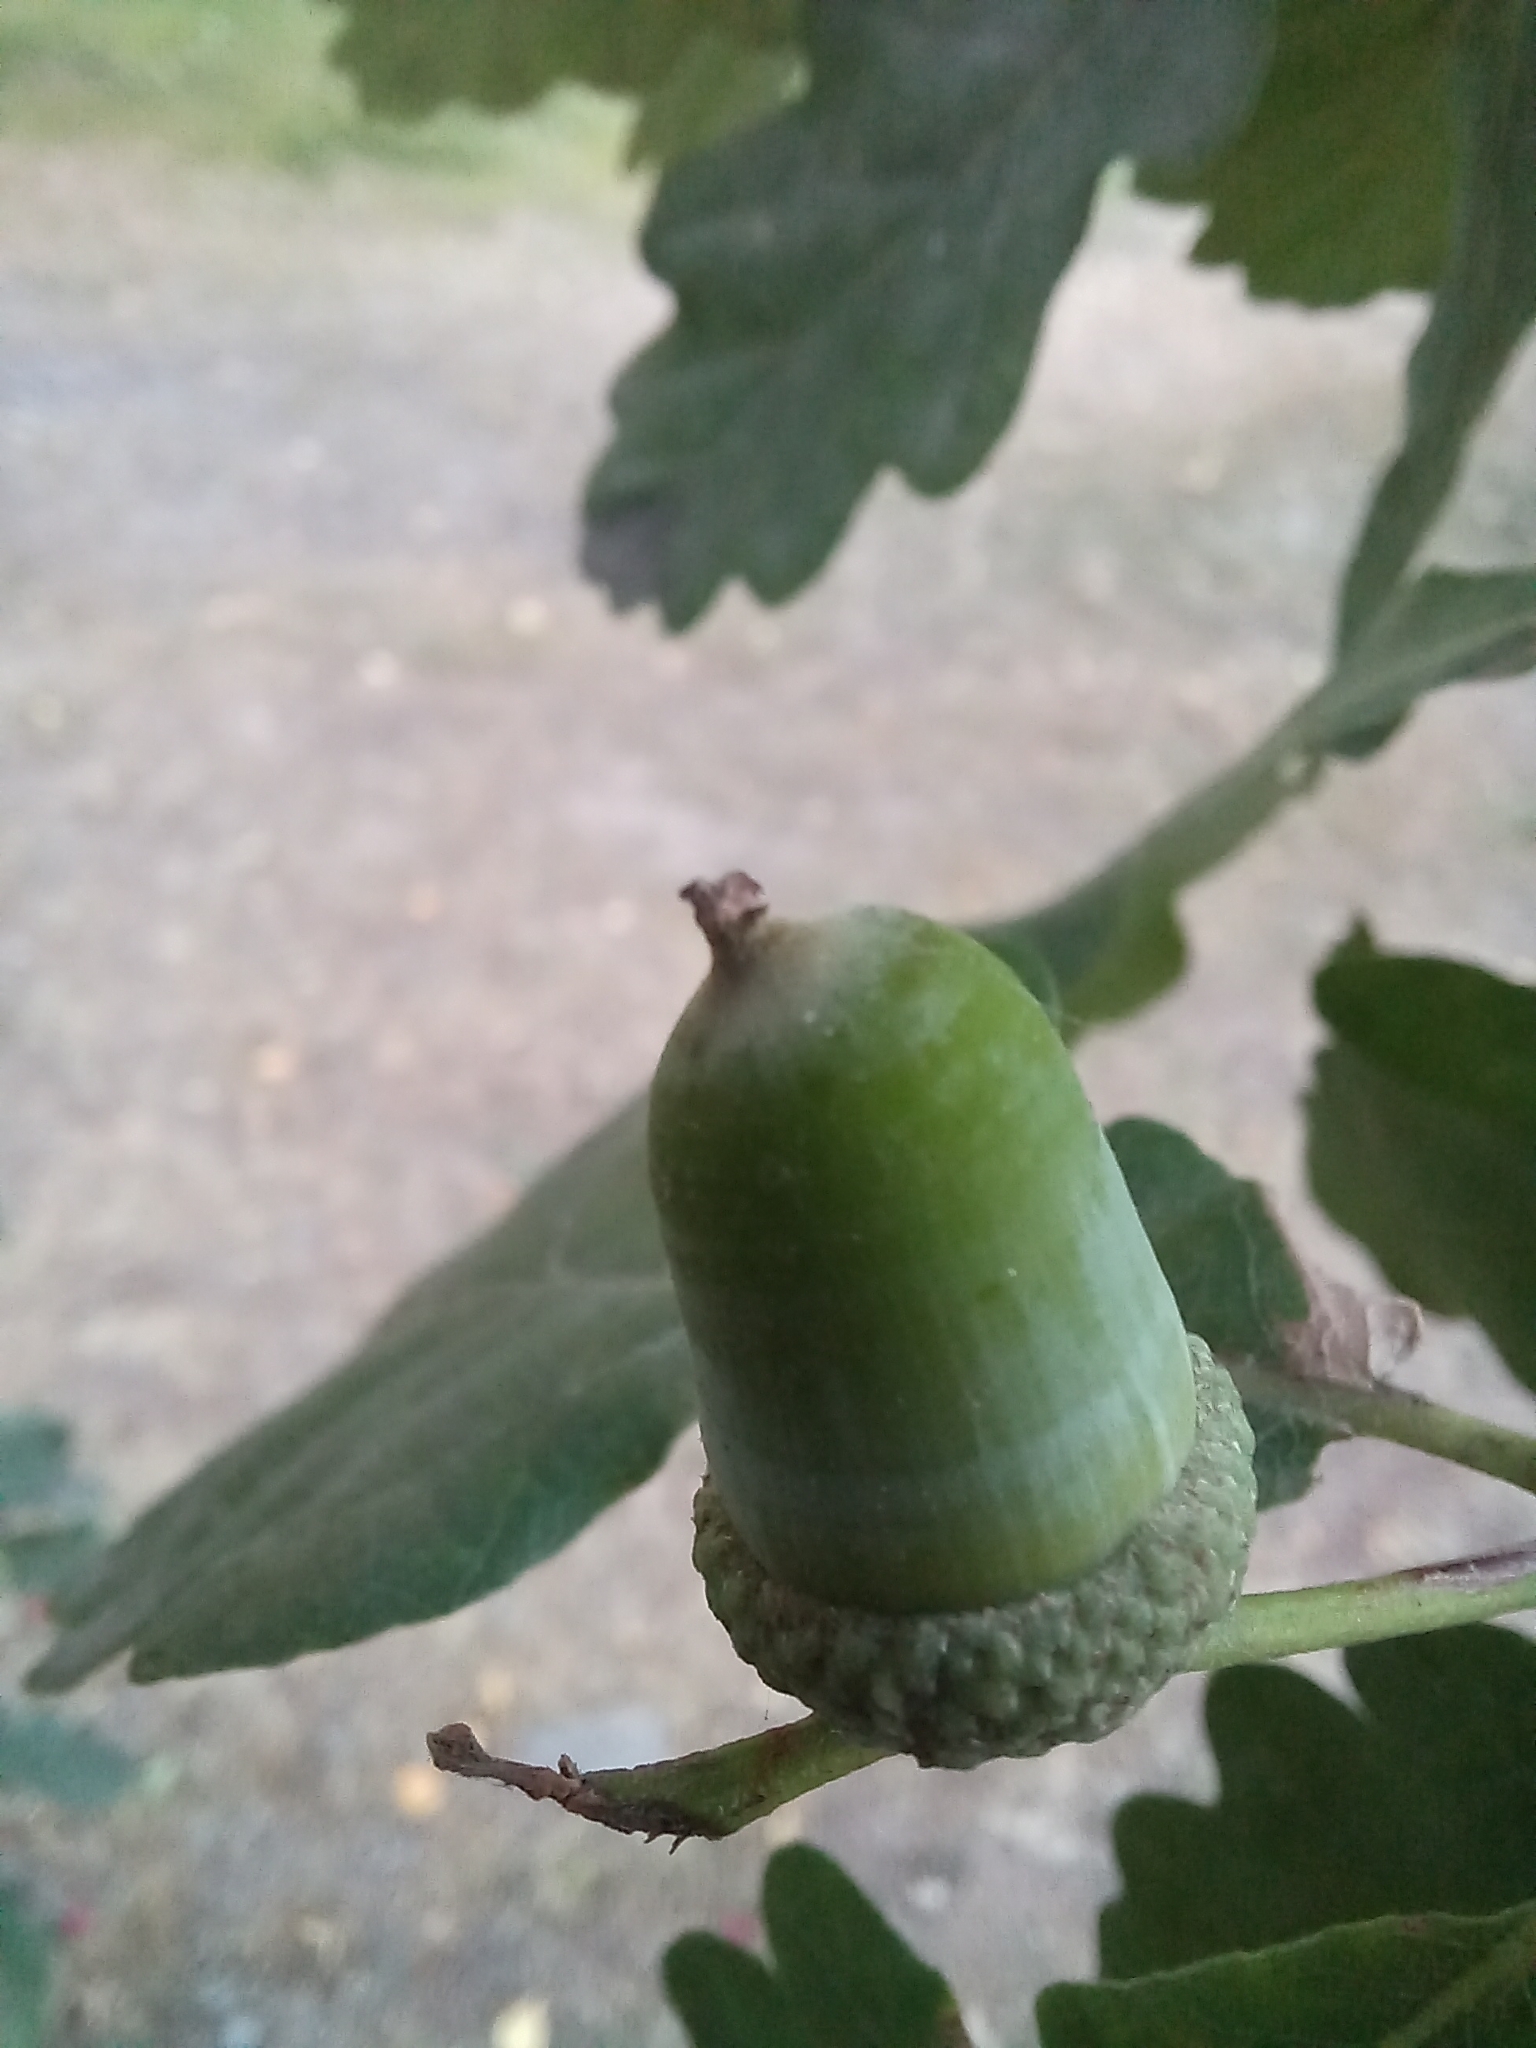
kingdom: Plantae
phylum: Tracheophyta
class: Magnoliopsida
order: Fagales
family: Fagaceae
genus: Quercus
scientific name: Quercus robur
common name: Pedunculate oak
